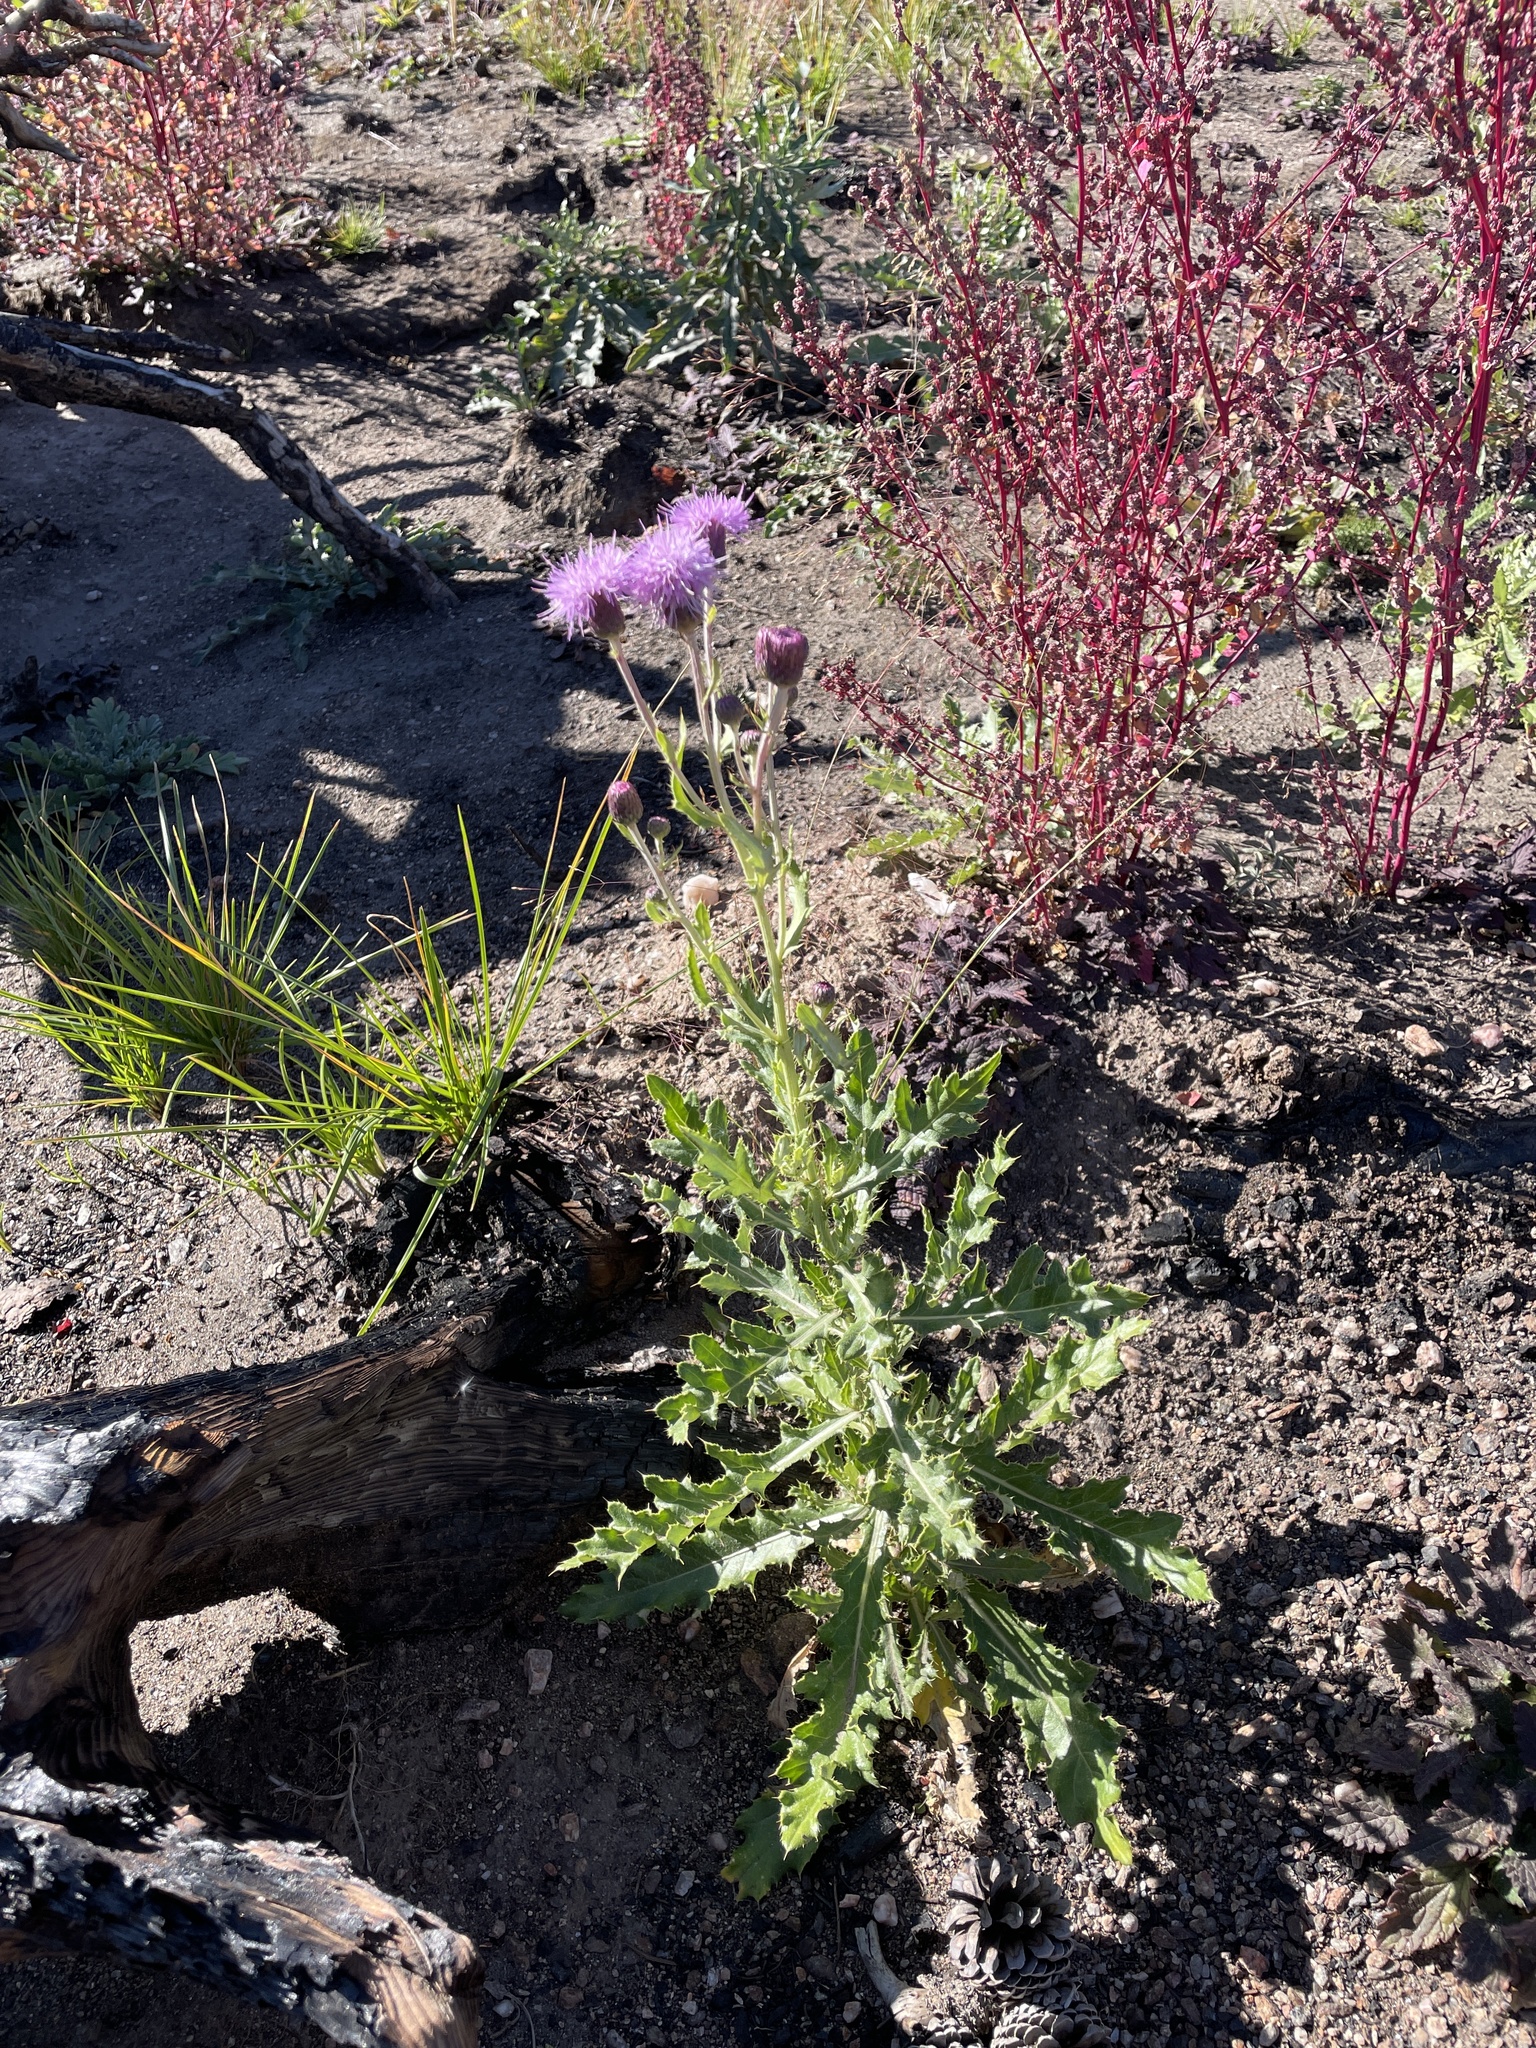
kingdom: Plantae
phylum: Tracheophyta
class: Magnoliopsida
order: Asterales
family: Asteraceae
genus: Cirsium
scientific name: Cirsium arvense
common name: Creeping thistle
